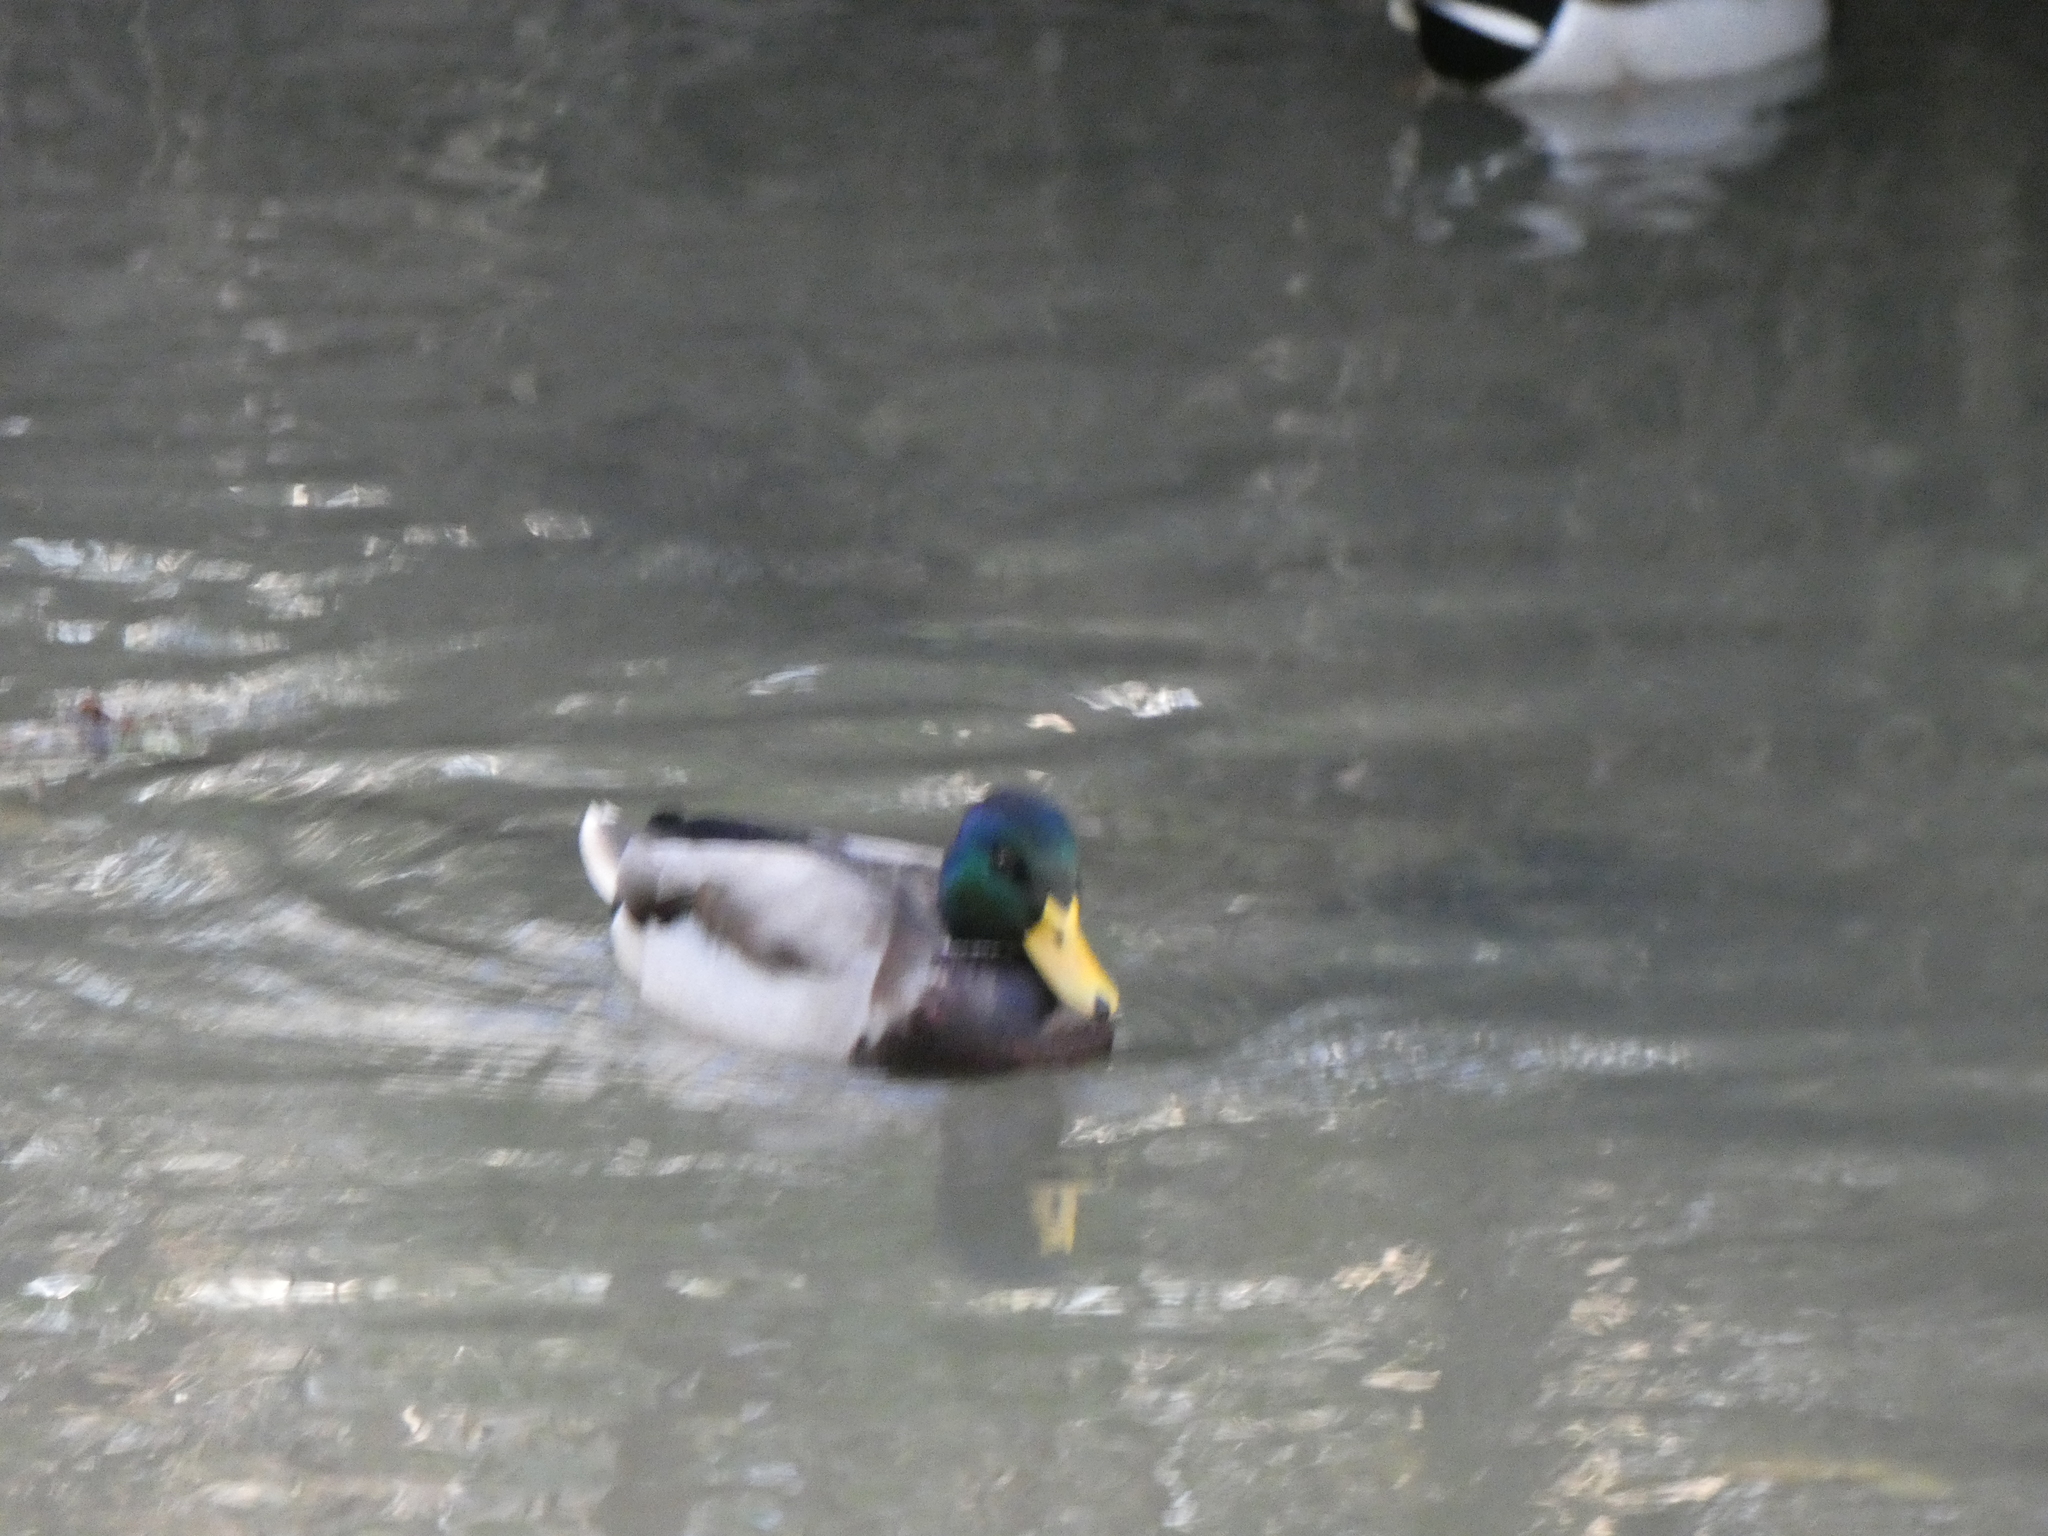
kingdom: Animalia
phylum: Chordata
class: Aves
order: Anseriformes
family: Anatidae
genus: Anas
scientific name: Anas platyrhynchos
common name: Mallard
